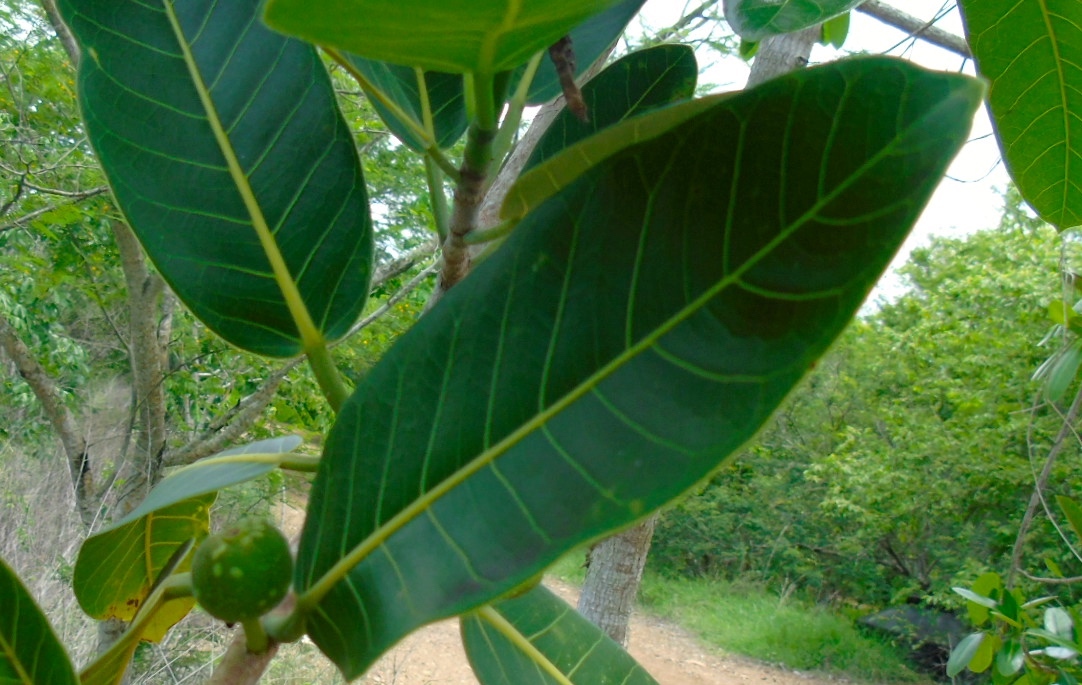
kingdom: Plantae
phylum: Tracheophyta
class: Magnoliopsida
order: Rosales
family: Moraceae
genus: Ficus
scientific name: Ficus crocata
